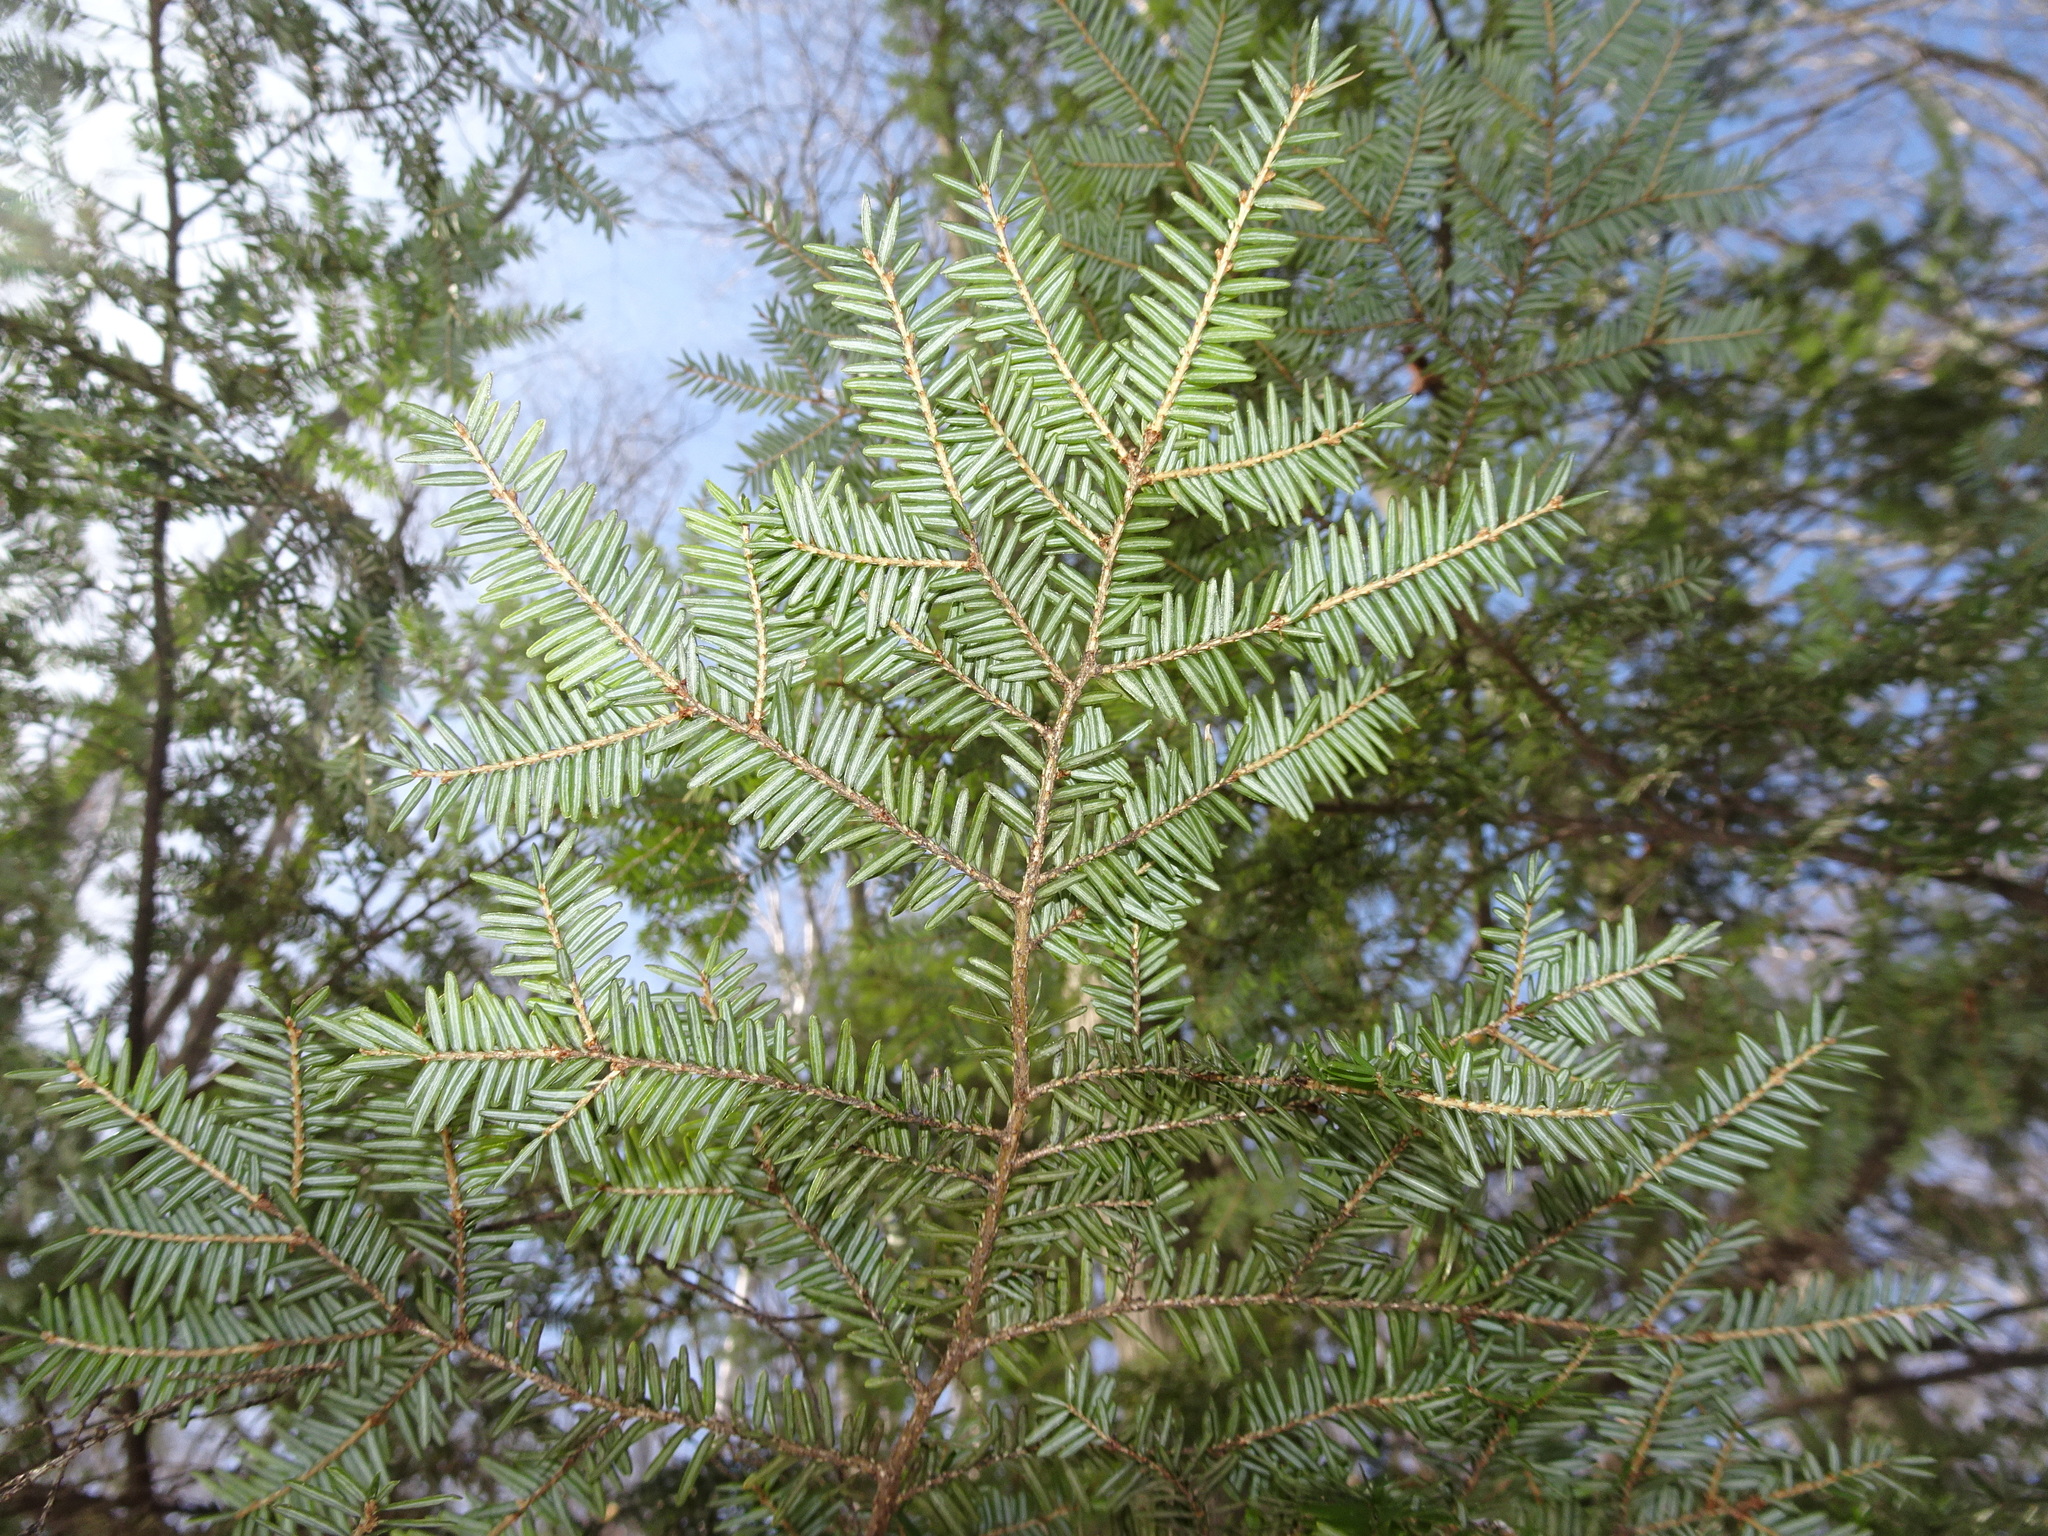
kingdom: Plantae
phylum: Tracheophyta
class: Pinopsida
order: Pinales
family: Pinaceae
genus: Tsuga
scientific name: Tsuga canadensis
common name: Eastern hemlock
